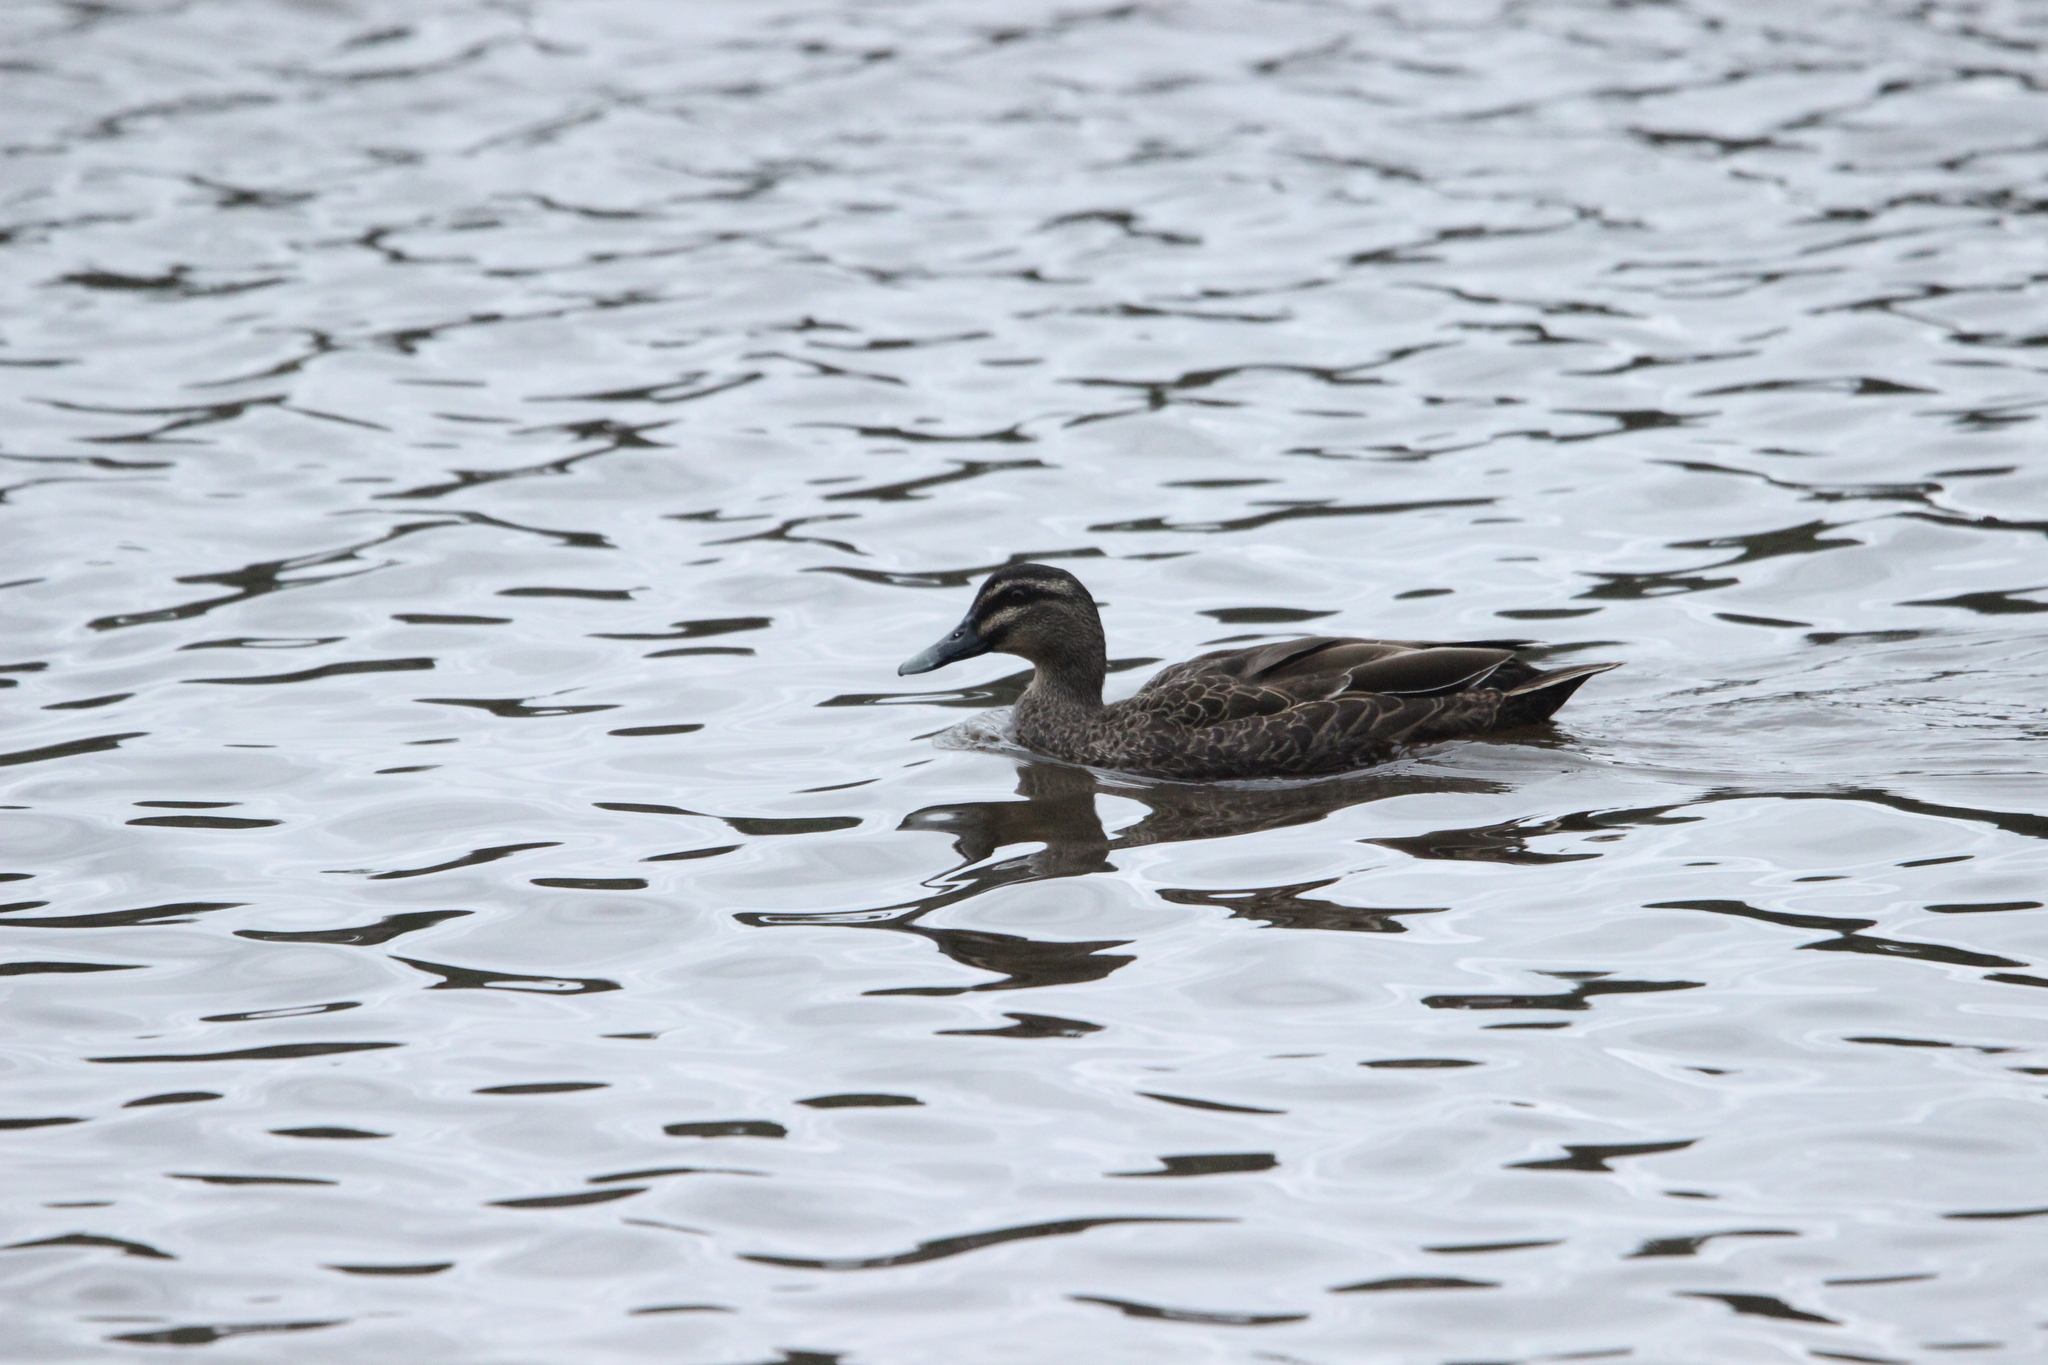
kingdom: Animalia
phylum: Chordata
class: Aves
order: Anseriformes
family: Anatidae
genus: Anas
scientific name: Anas
